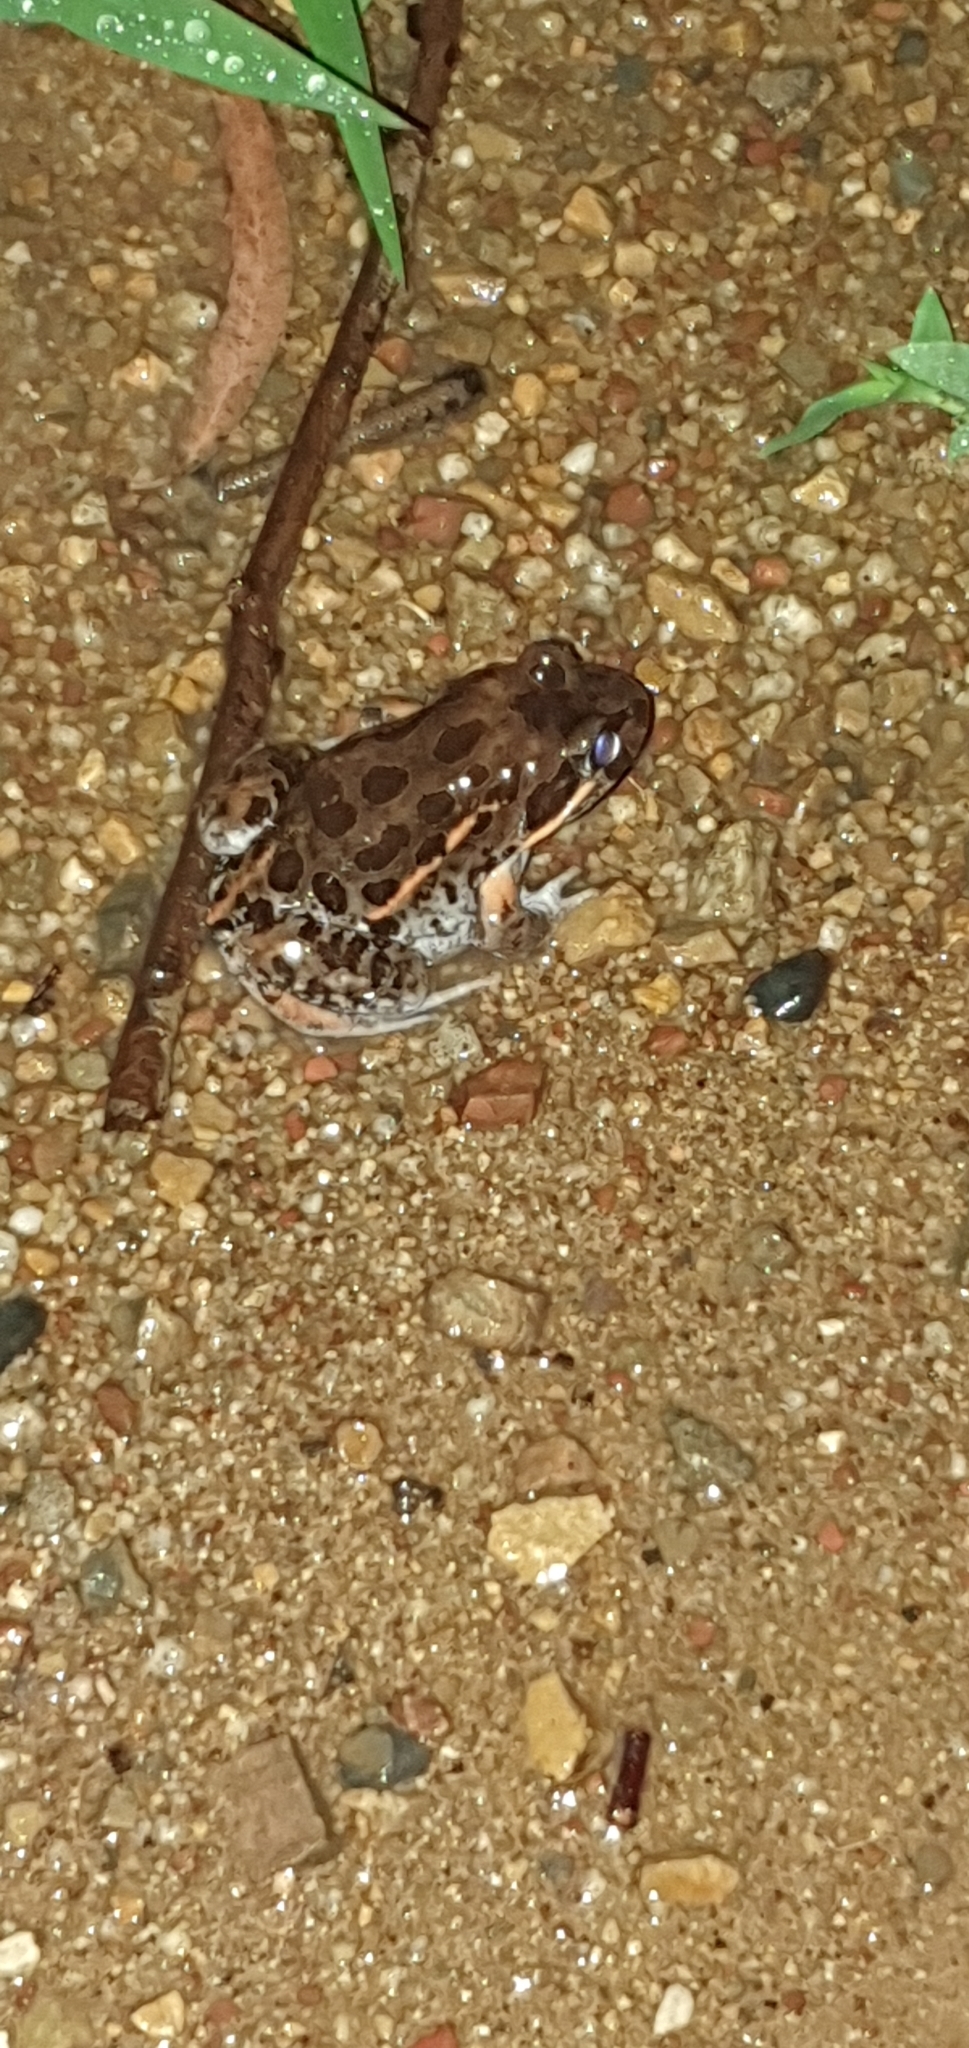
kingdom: Animalia
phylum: Chordata
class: Amphibia
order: Anura
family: Limnodynastidae
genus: Limnodynastes
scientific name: Limnodynastes salmini
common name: Salmon-striped frog
